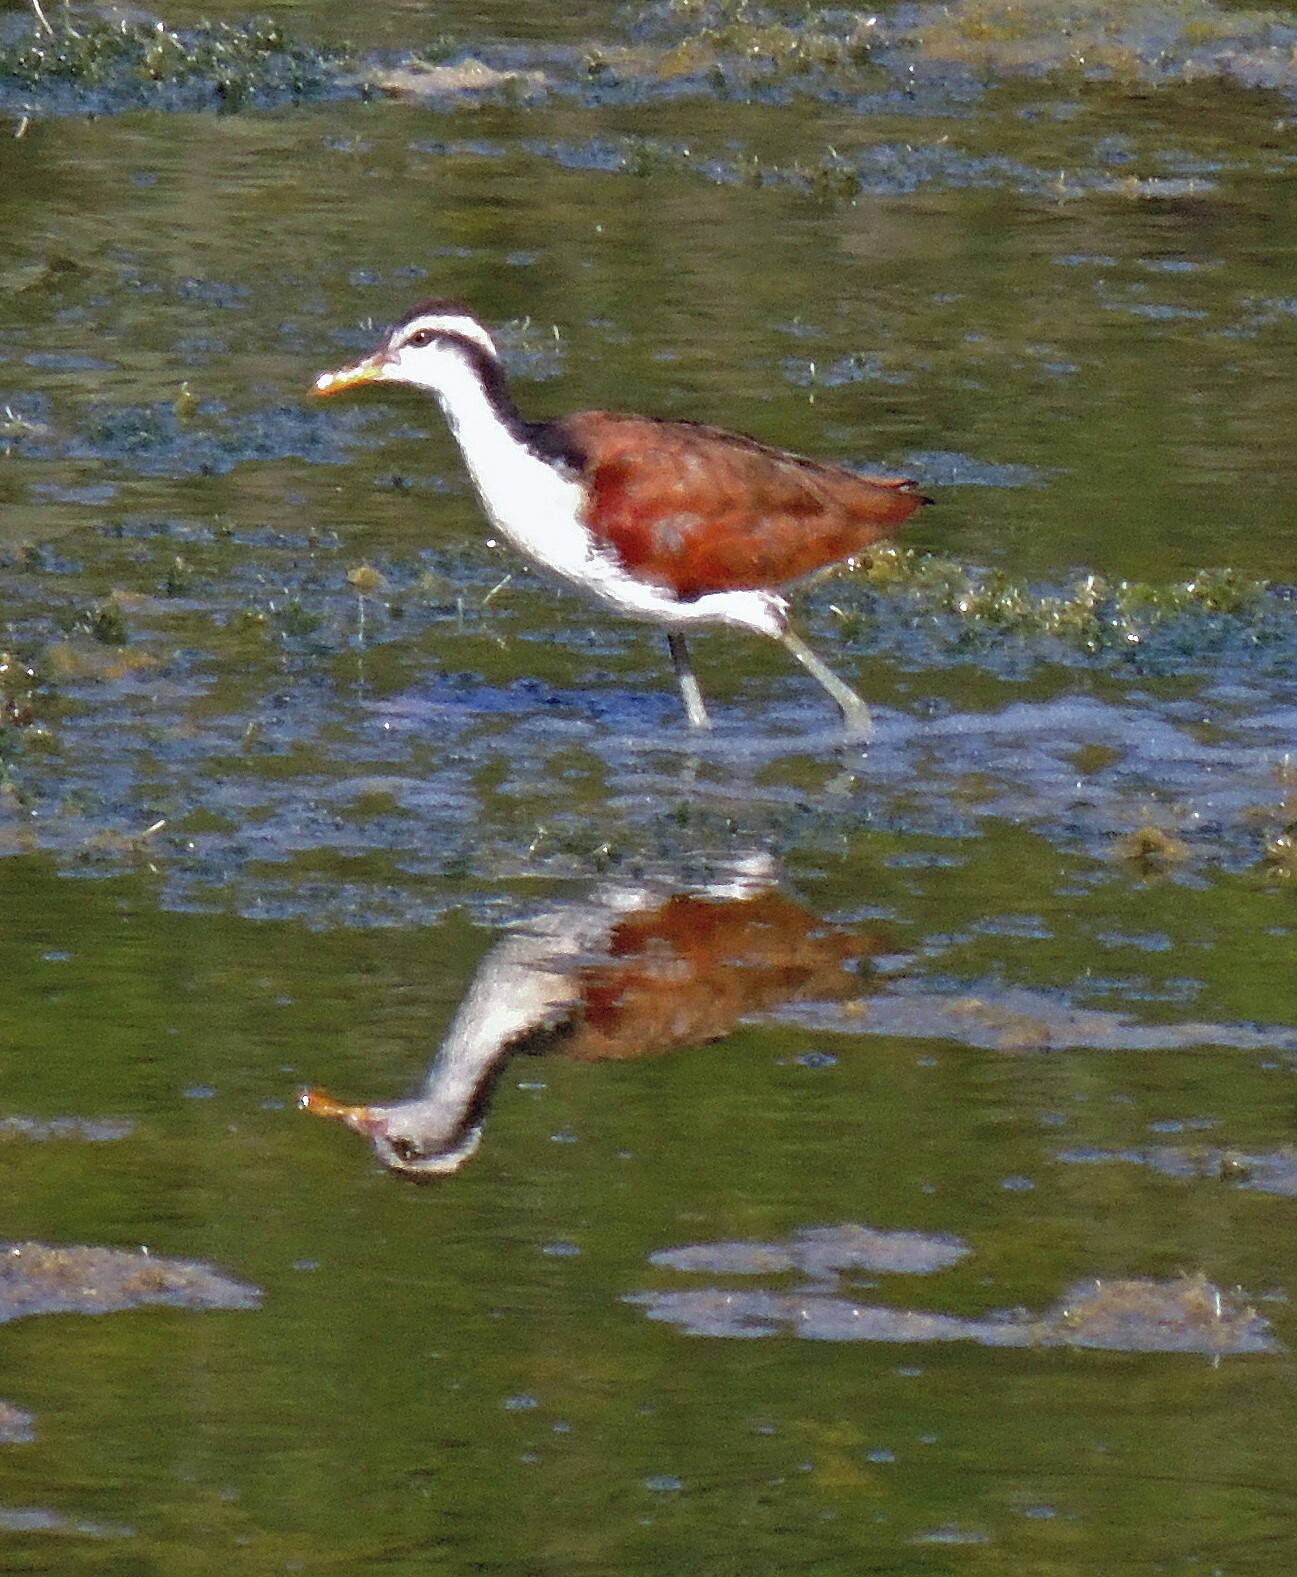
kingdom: Animalia
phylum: Chordata
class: Aves
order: Charadriiformes
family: Jacanidae
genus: Jacana
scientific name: Jacana jacana
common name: Wattled jacana
